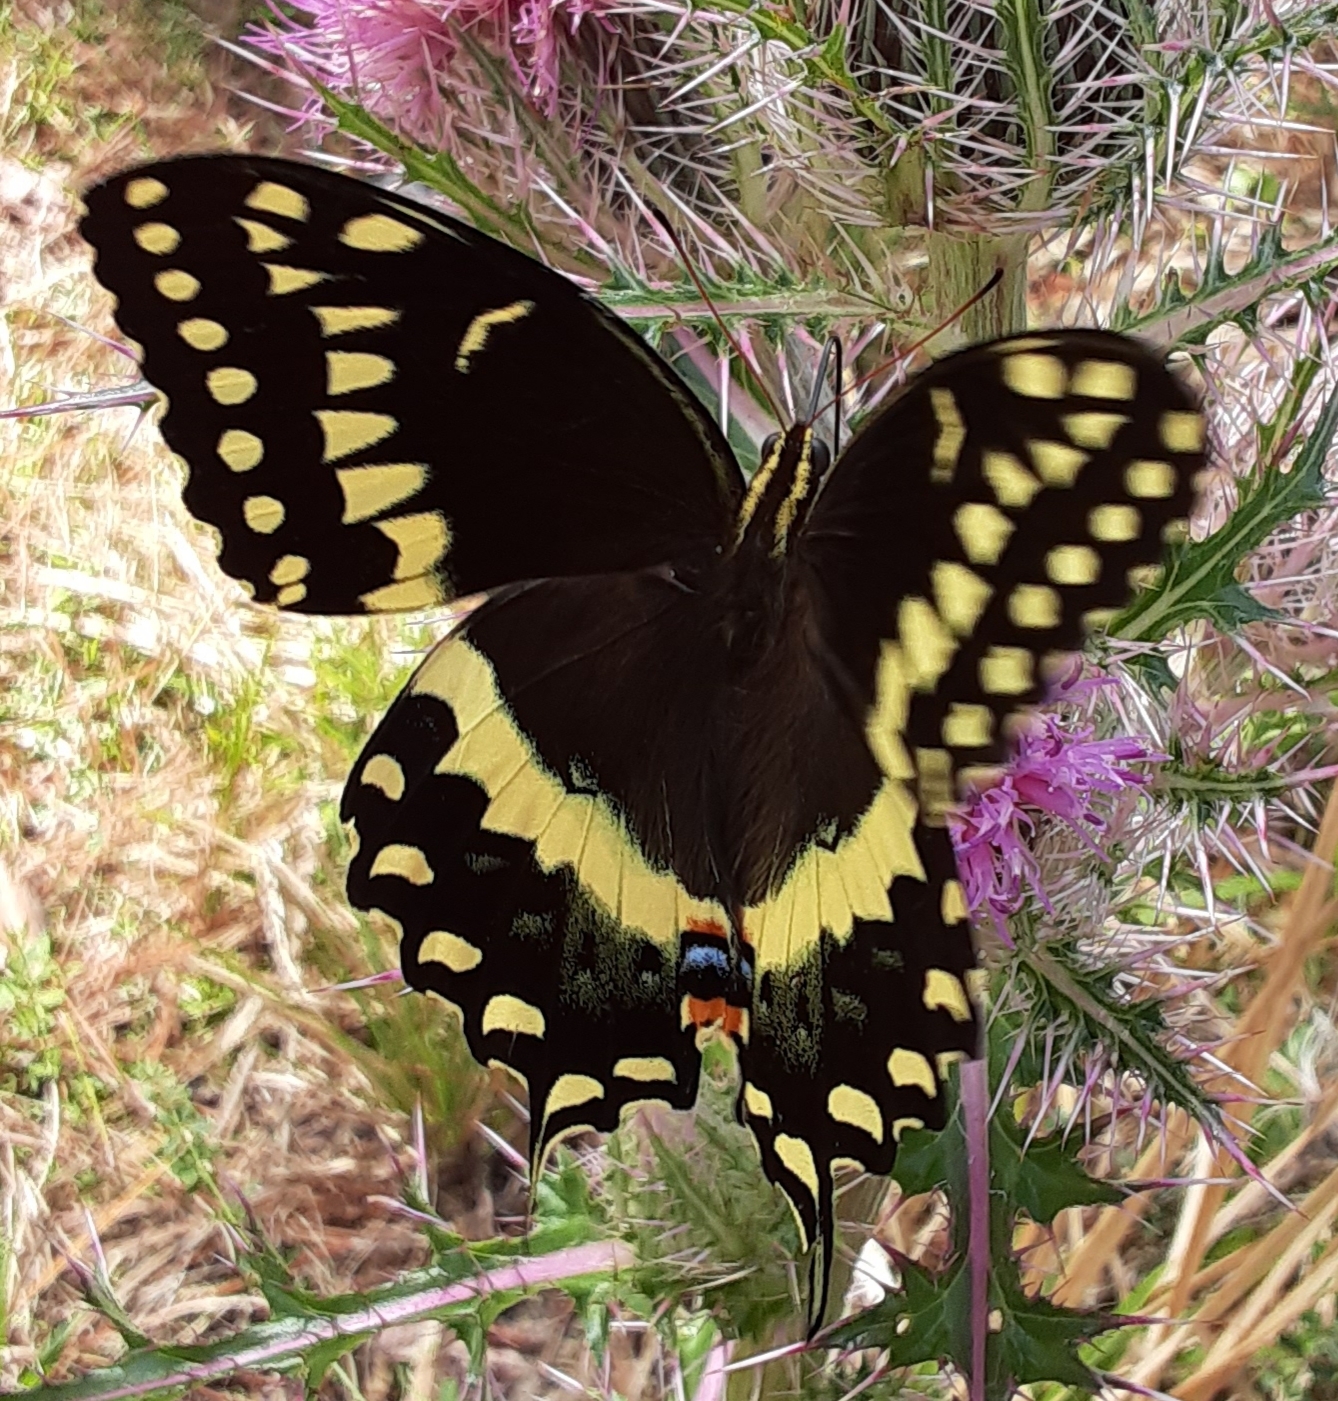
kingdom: Animalia
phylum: Arthropoda
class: Insecta
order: Lepidoptera
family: Papilionidae
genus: Papilio
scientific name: Papilio palamedes
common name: Palamedes swallowtail
